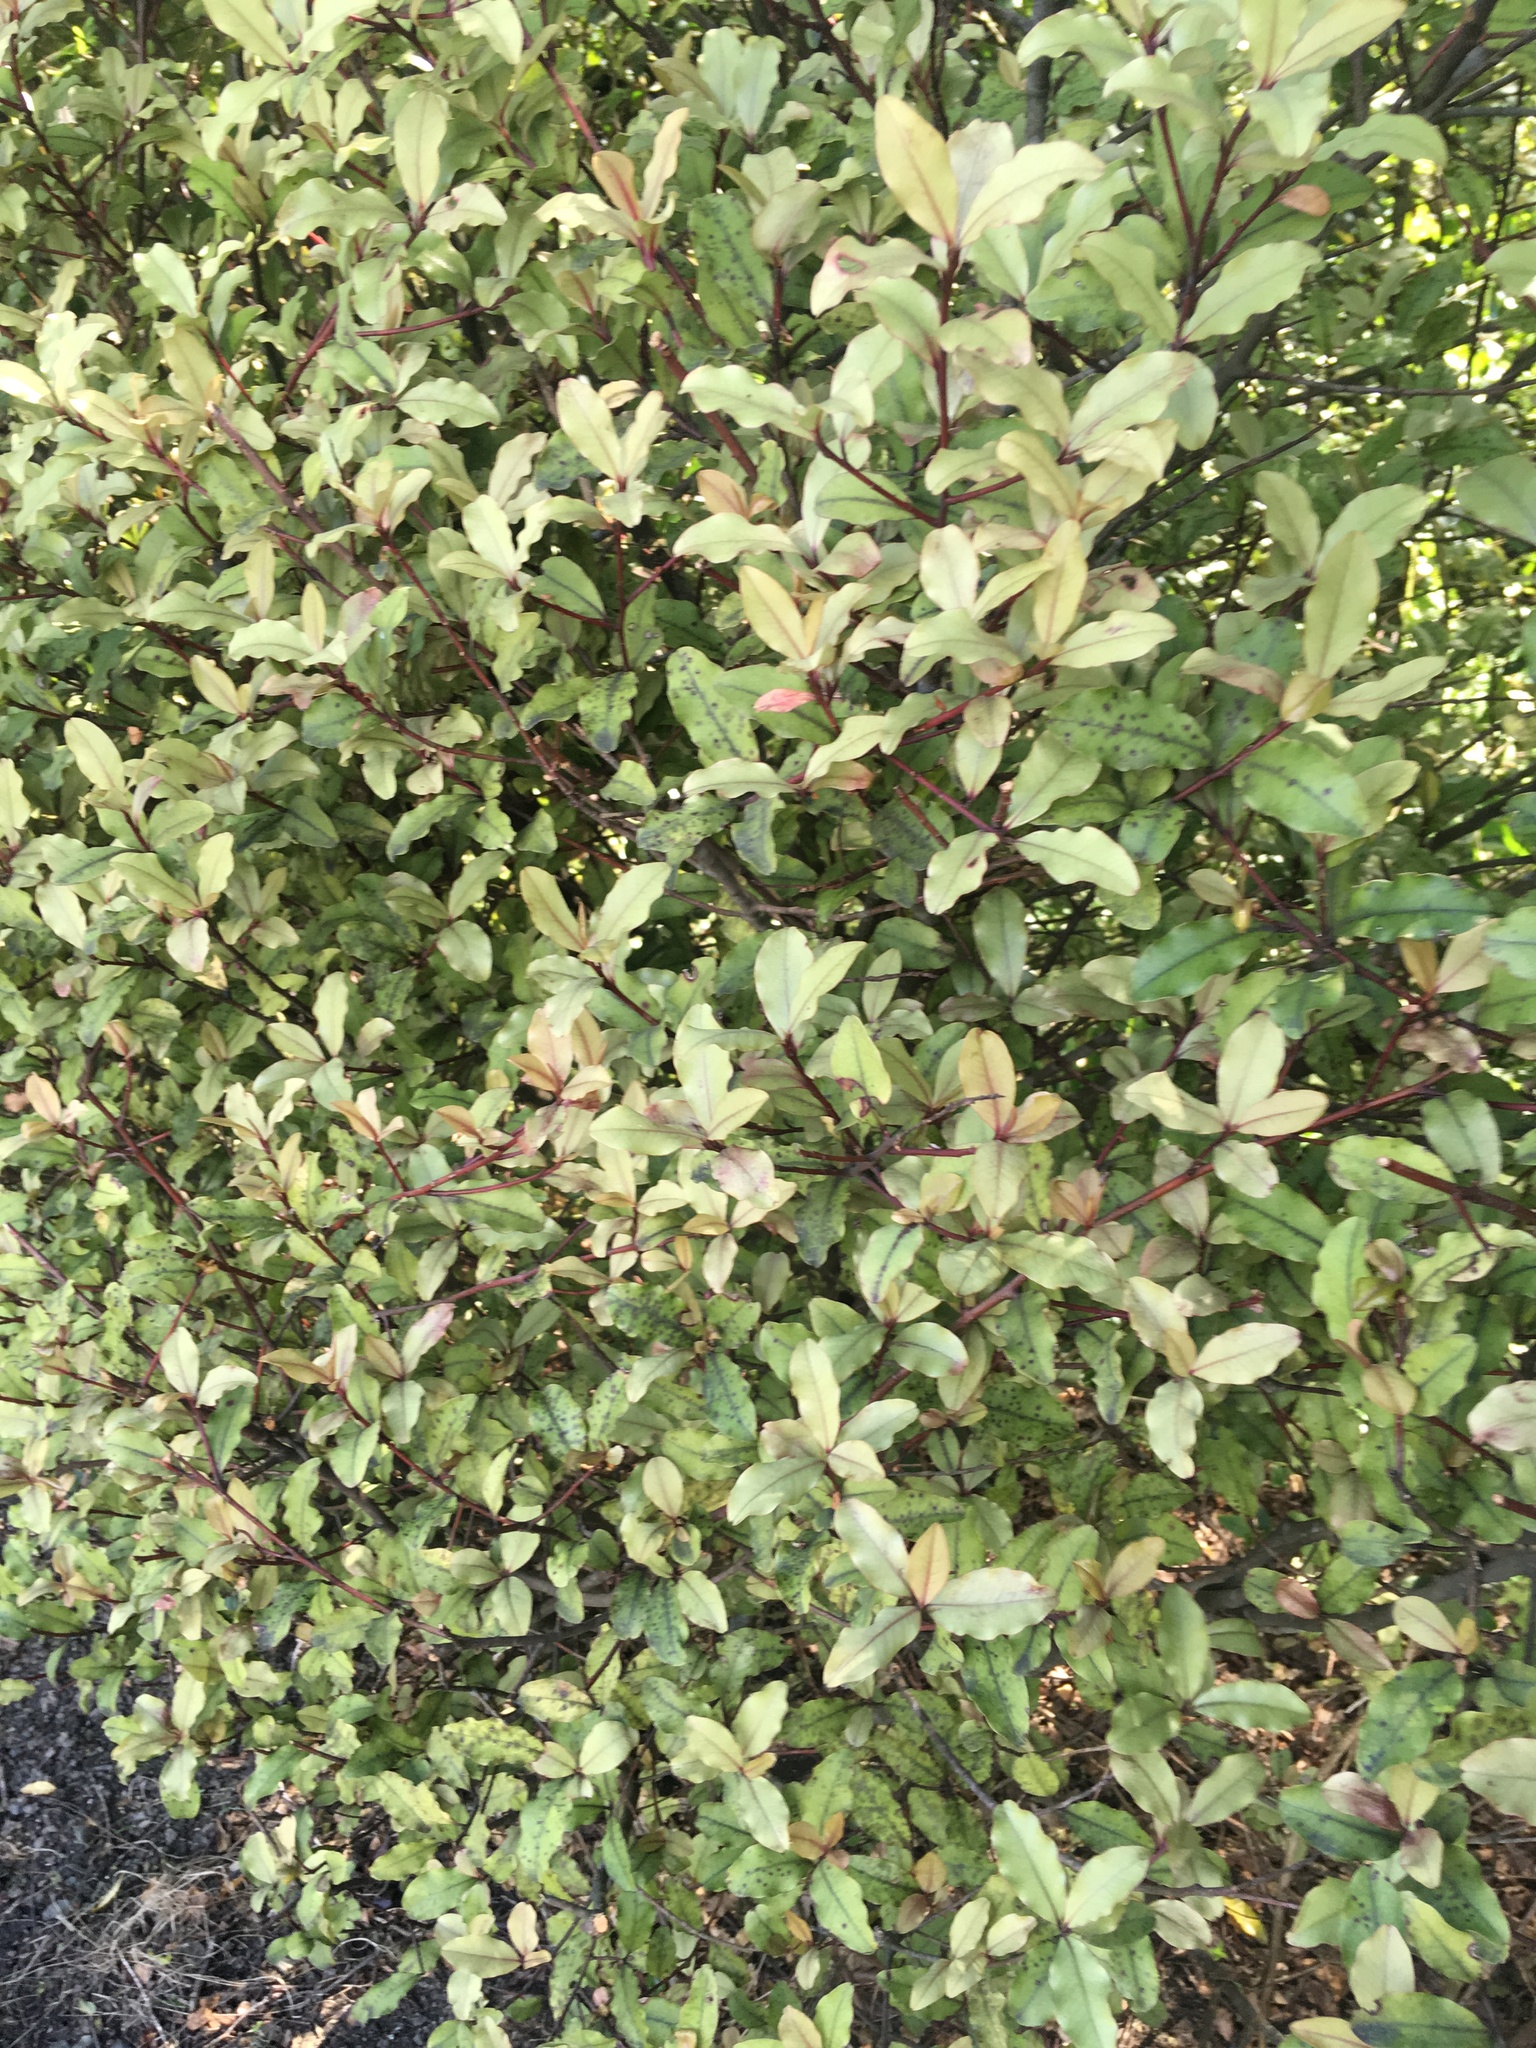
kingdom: Plantae
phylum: Tracheophyta
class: Magnoliopsida
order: Ericales
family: Primulaceae
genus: Myrsine
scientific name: Myrsine australis
